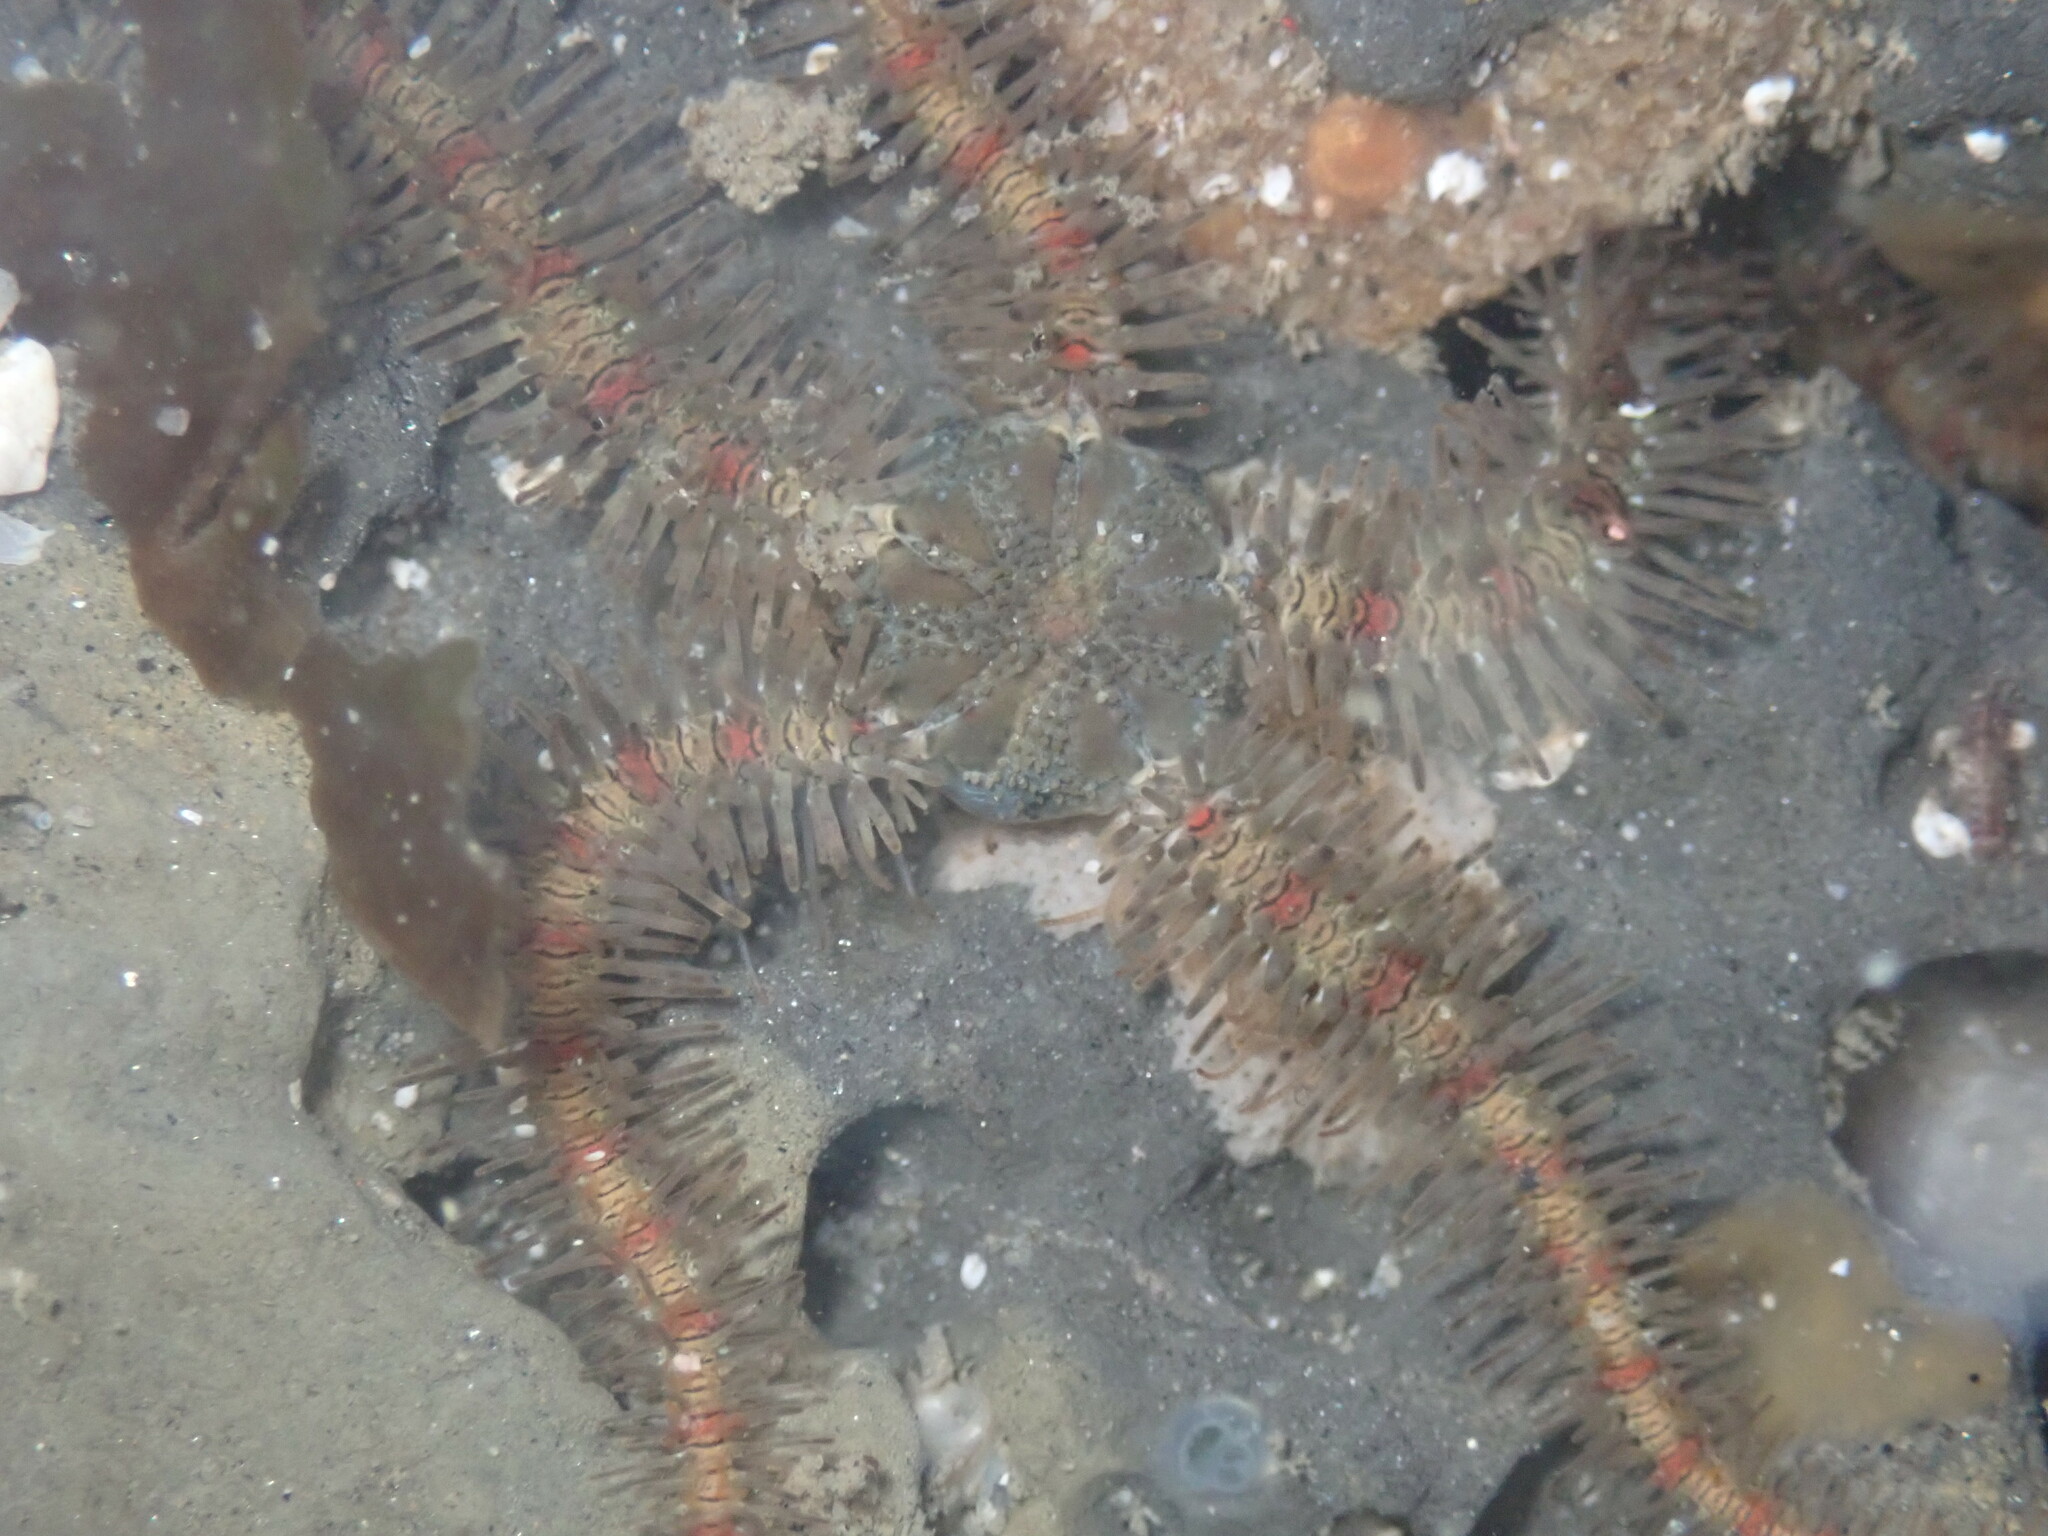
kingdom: Animalia
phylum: Echinodermata
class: Ophiuroidea
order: Amphilepidida
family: Ophiotrichidae
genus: Ophiothrix
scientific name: Ophiothrix rudis
